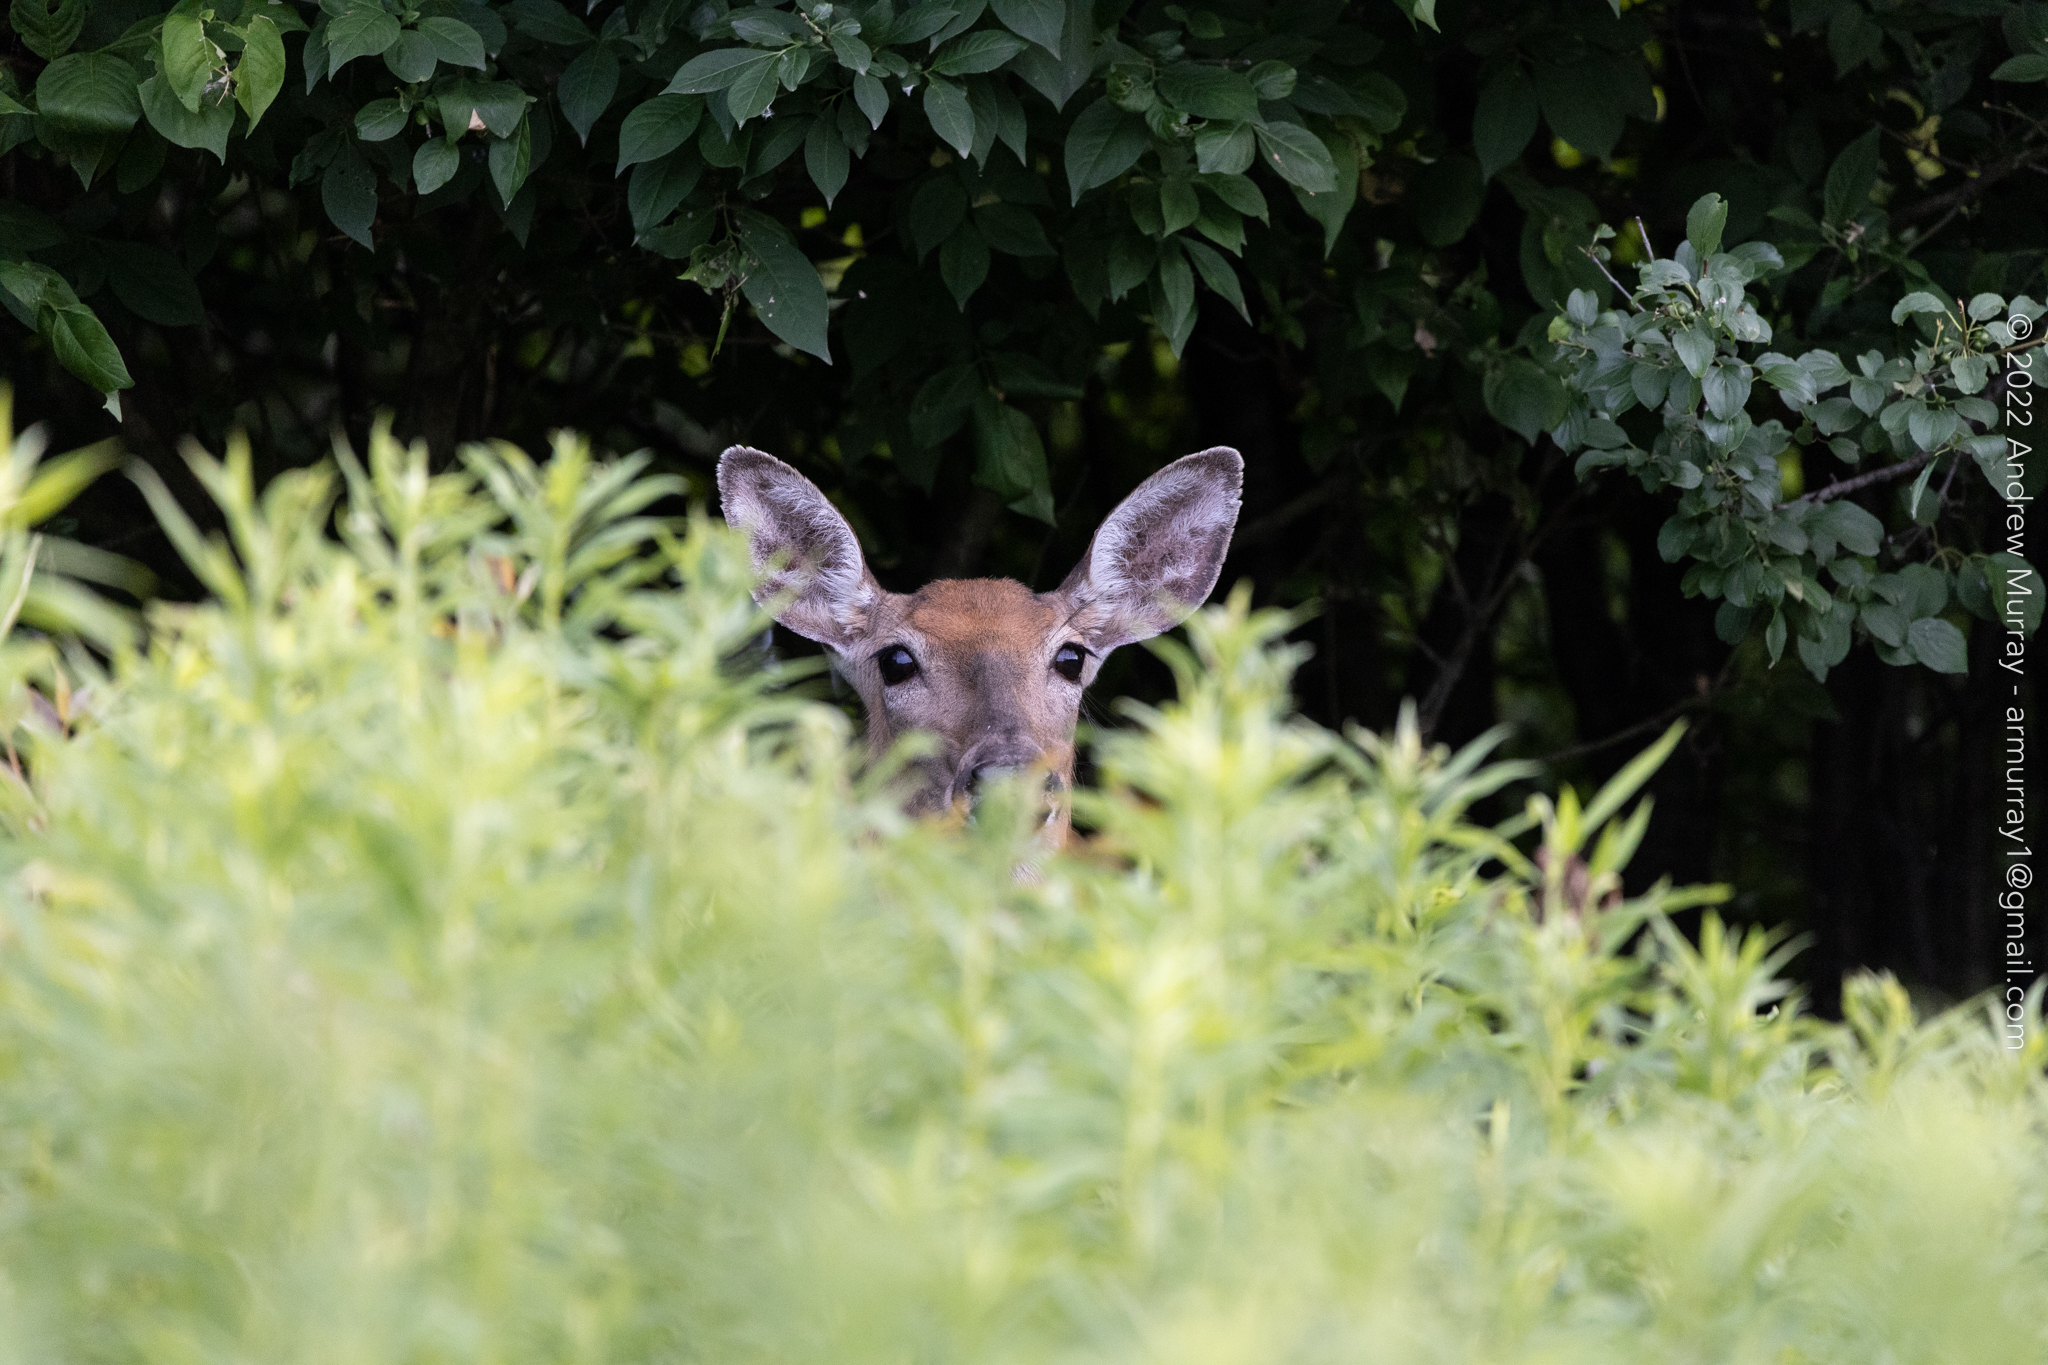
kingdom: Animalia
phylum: Chordata
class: Mammalia
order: Artiodactyla
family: Cervidae
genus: Odocoileus
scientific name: Odocoileus virginianus
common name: White-tailed deer
